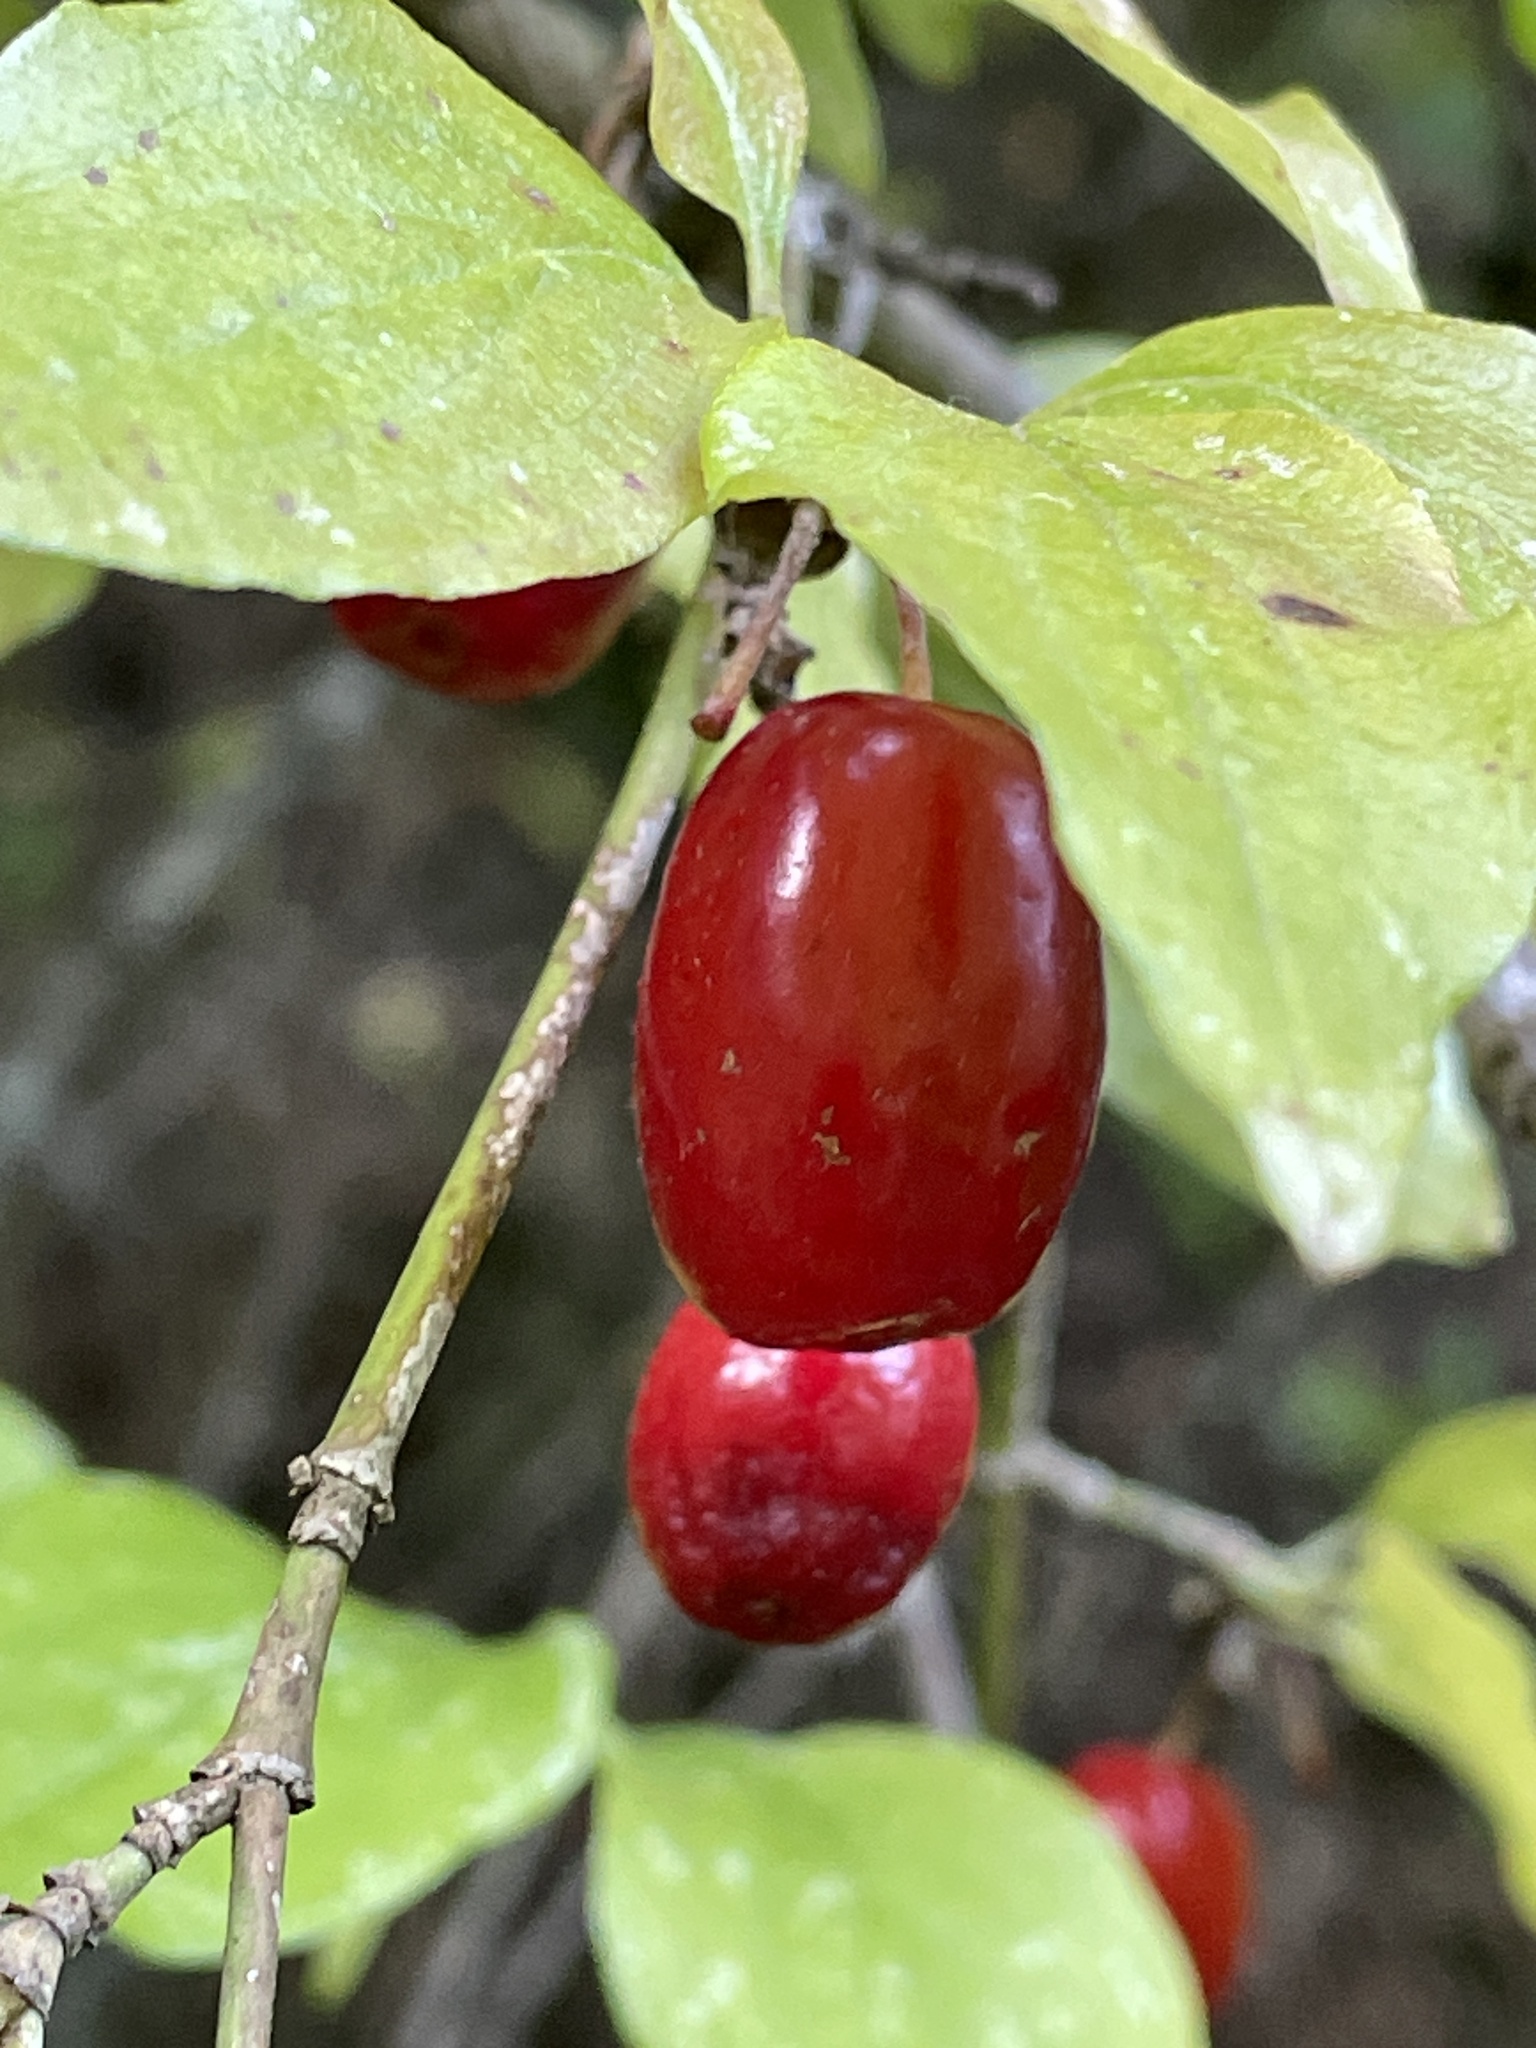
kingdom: Plantae
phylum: Tracheophyta
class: Magnoliopsida
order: Cornales
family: Cornaceae
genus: Cornus
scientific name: Cornus mas
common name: Cornelian-cherry
